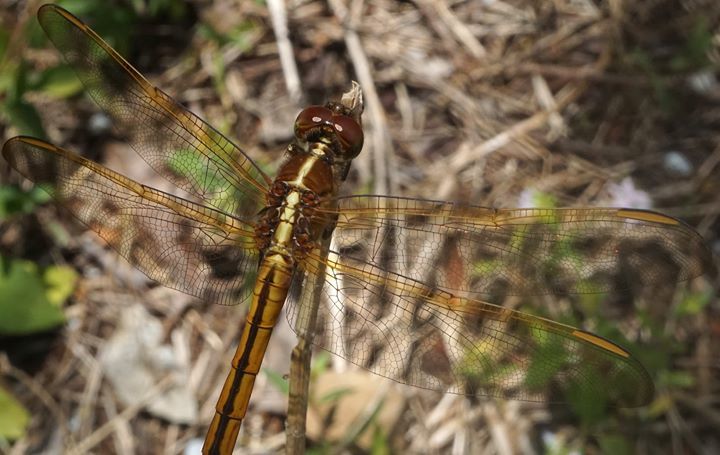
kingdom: Animalia
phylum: Arthropoda
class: Insecta
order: Odonata
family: Libellulidae
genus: Libellula
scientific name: Libellula needhami
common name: Needham's skimmer
